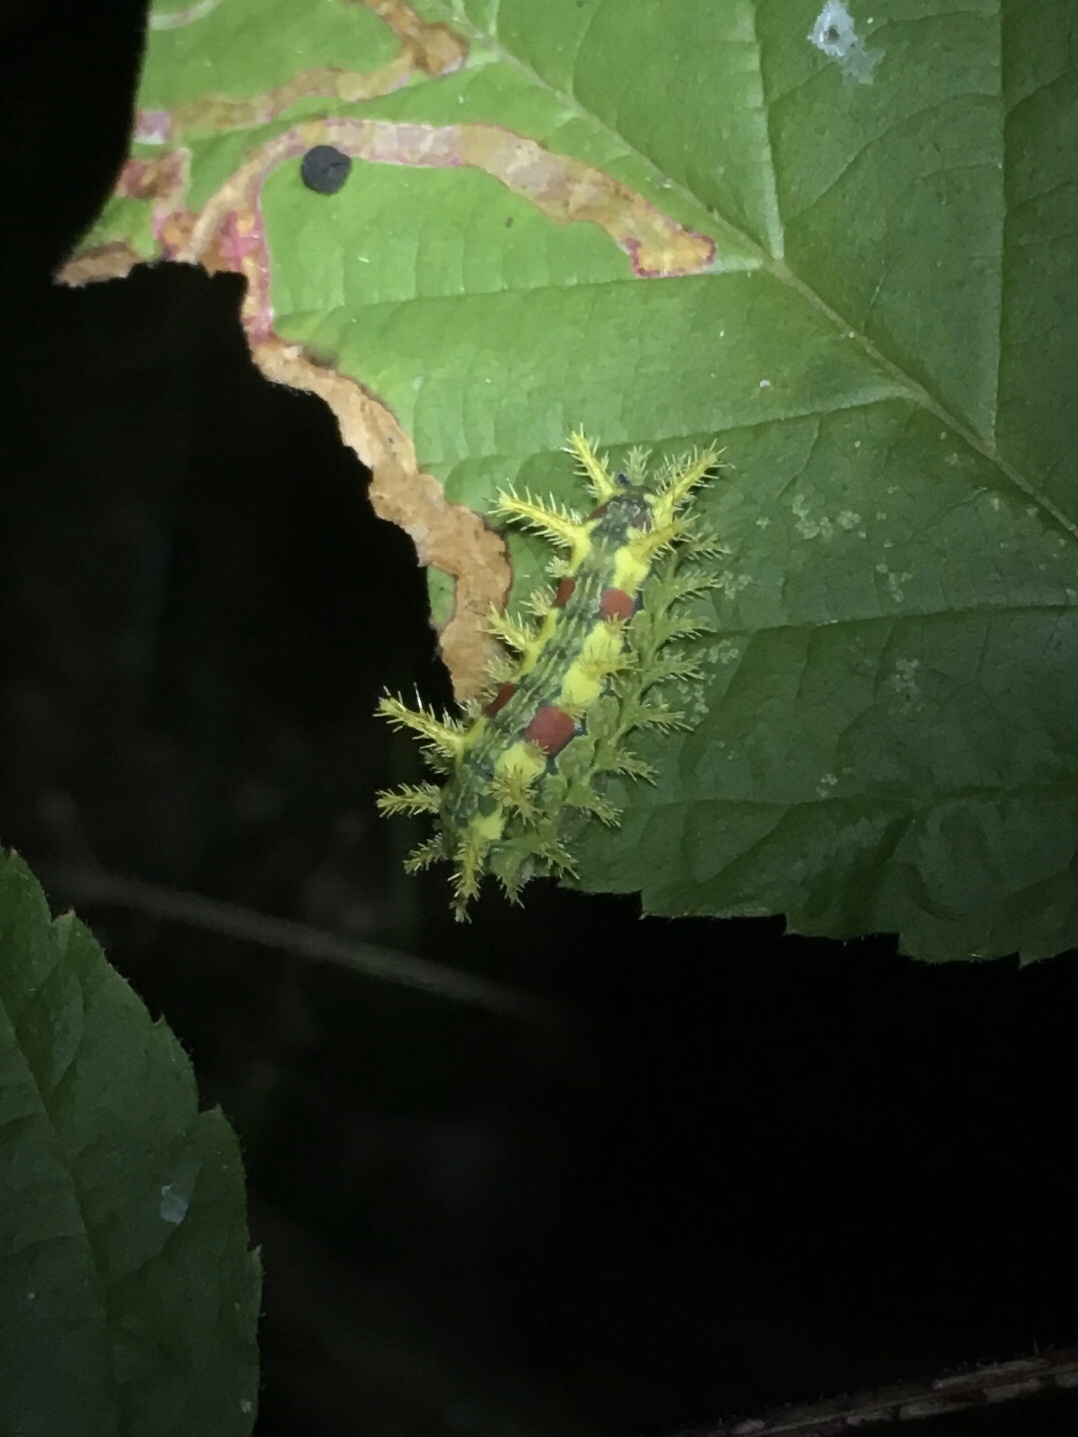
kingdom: Animalia
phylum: Arthropoda
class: Insecta
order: Lepidoptera
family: Limacodidae
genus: Euclea
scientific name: Euclea delphinii
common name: Spiny oak-slug moth
